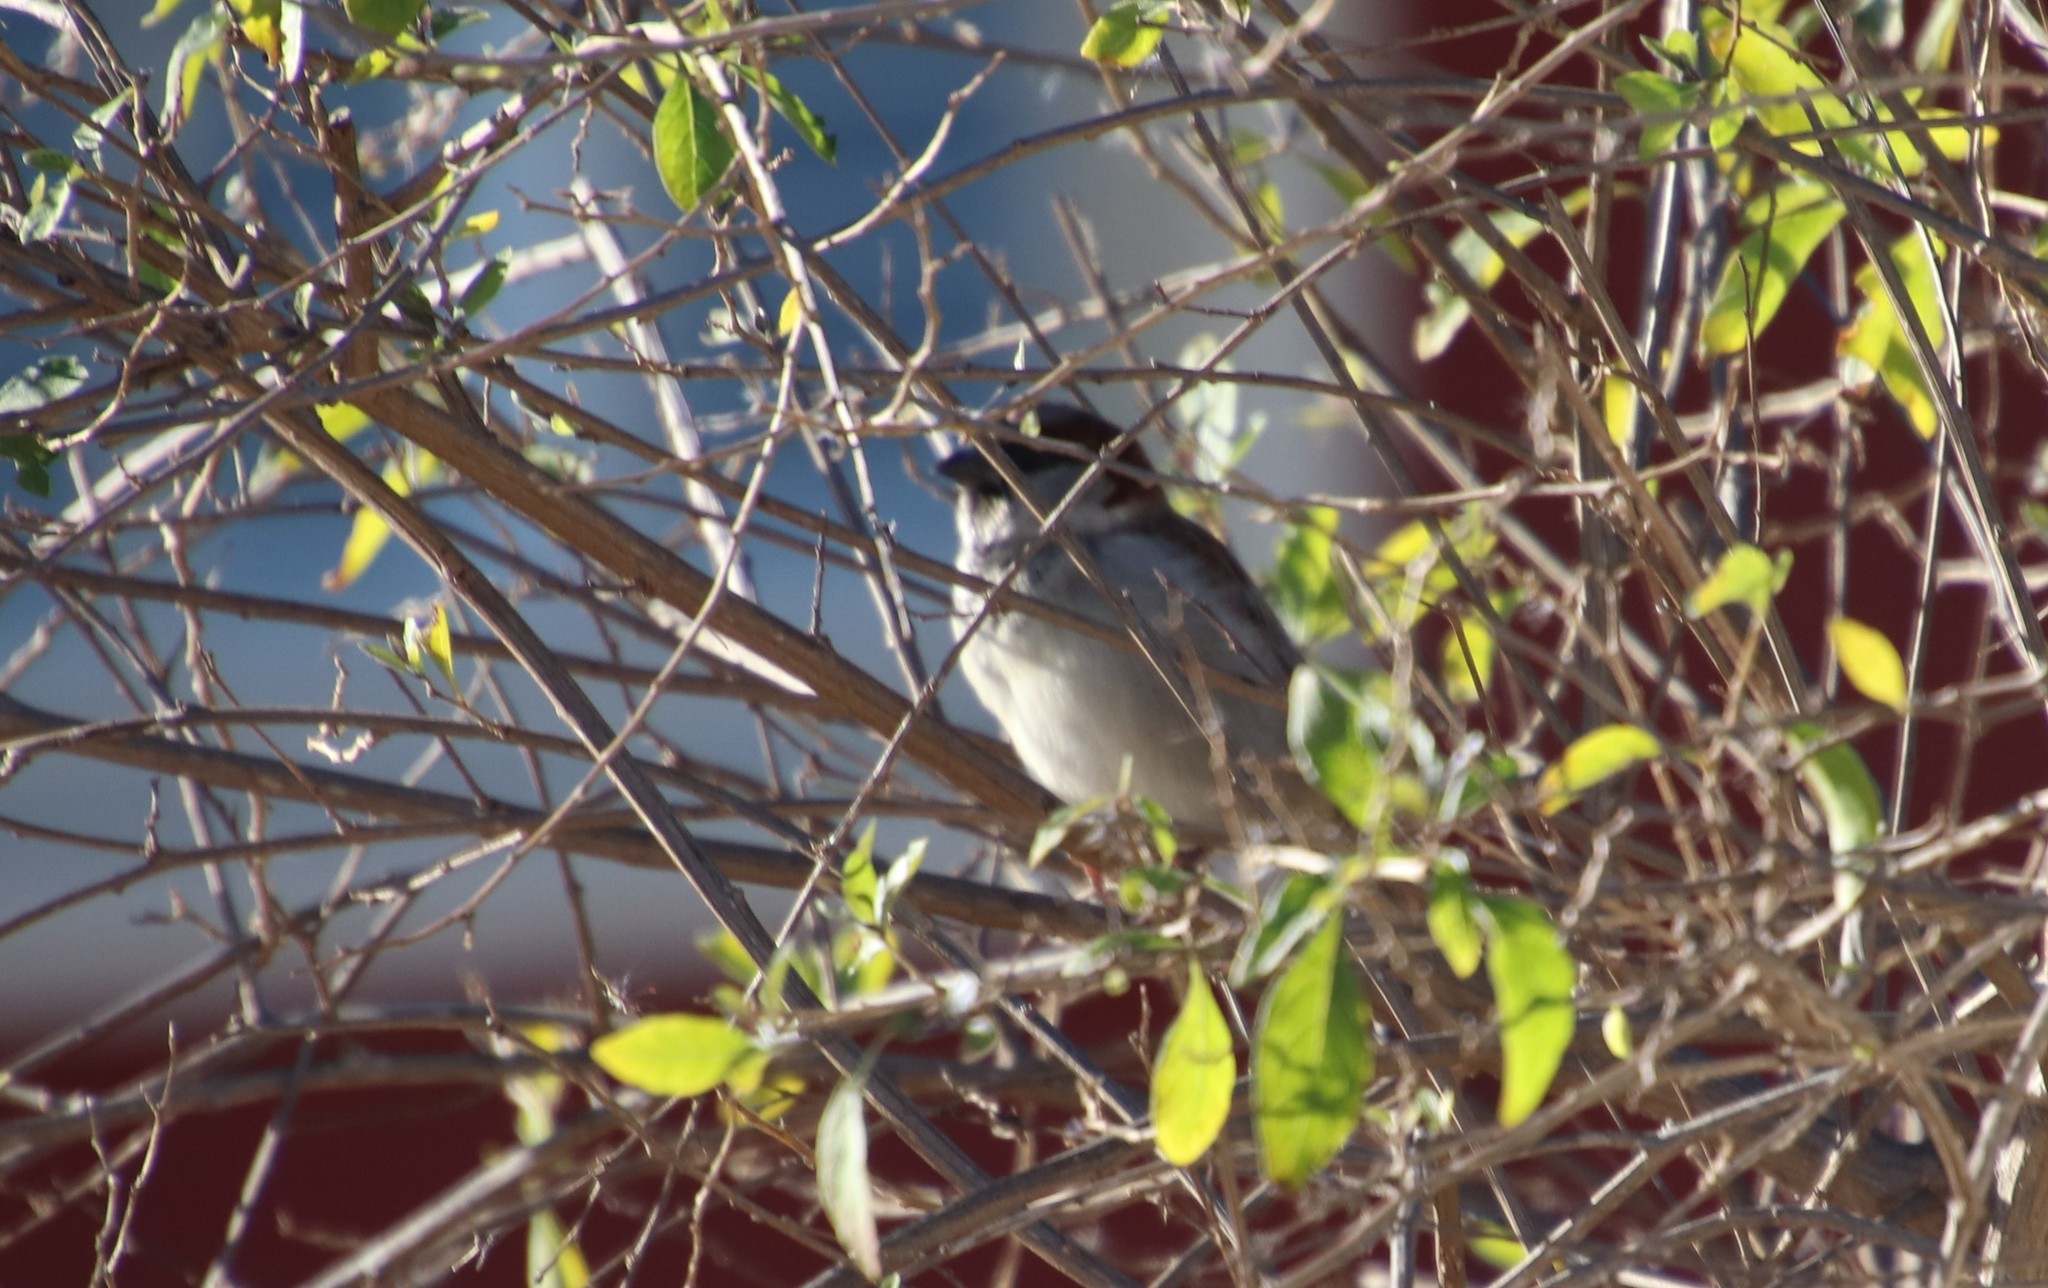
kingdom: Animalia
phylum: Chordata
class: Aves
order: Passeriformes
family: Passeridae
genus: Passer
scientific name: Passer domesticus
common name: House sparrow
